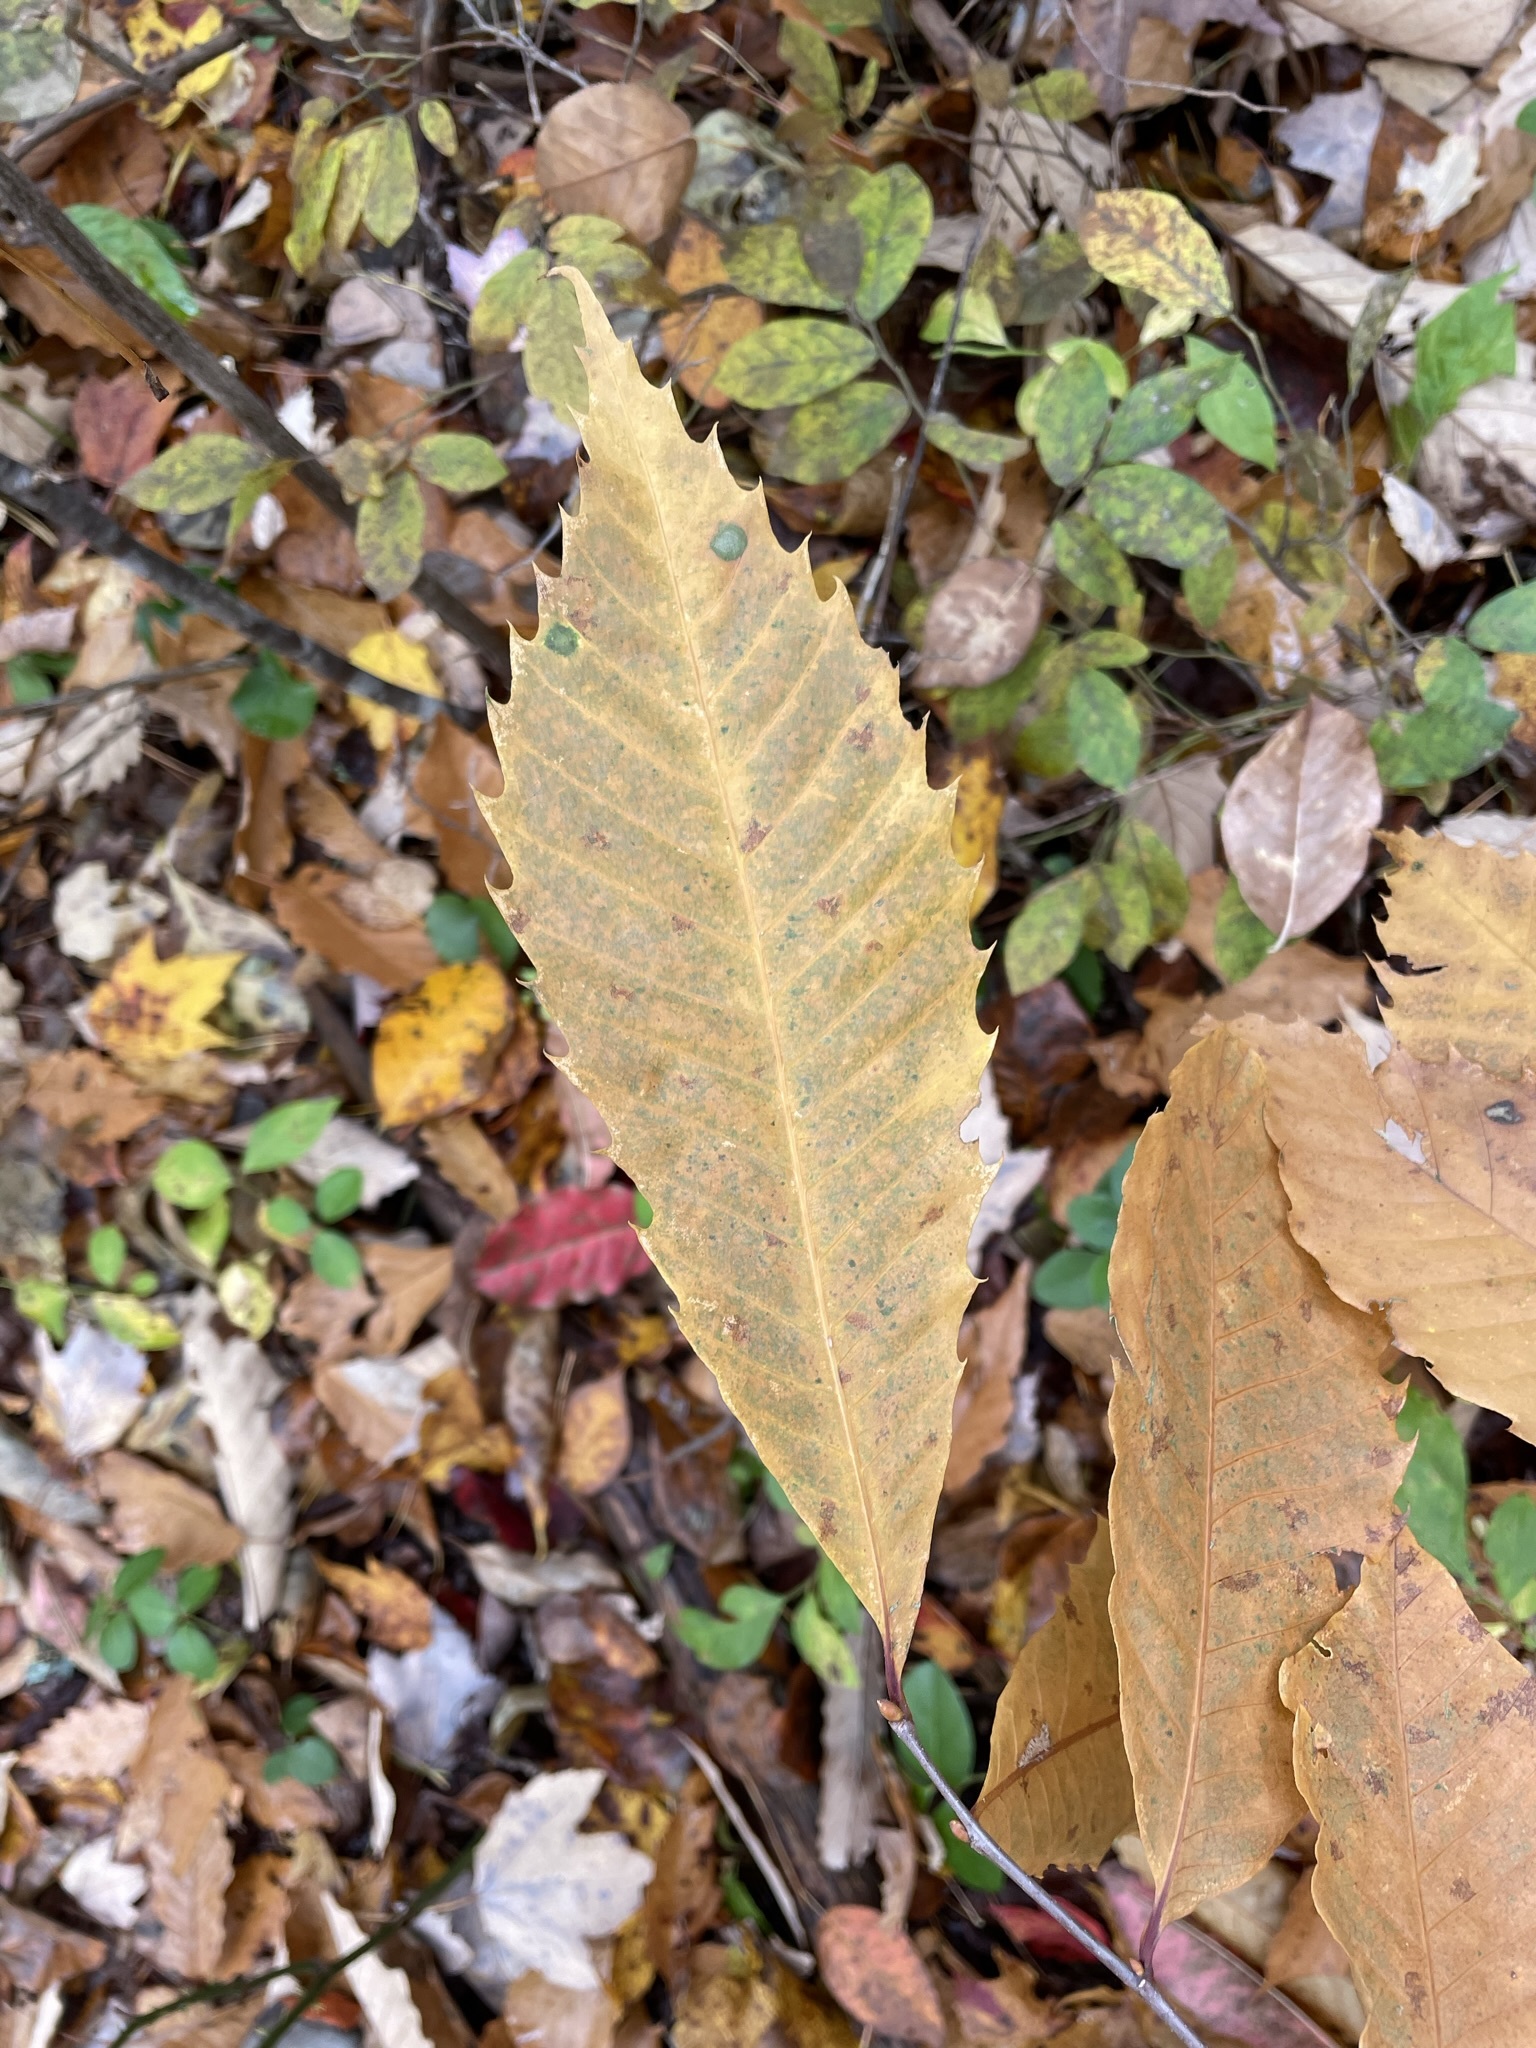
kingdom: Plantae
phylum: Tracheophyta
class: Magnoliopsida
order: Fagales
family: Fagaceae
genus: Castanea
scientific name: Castanea dentata
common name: American chestnut
